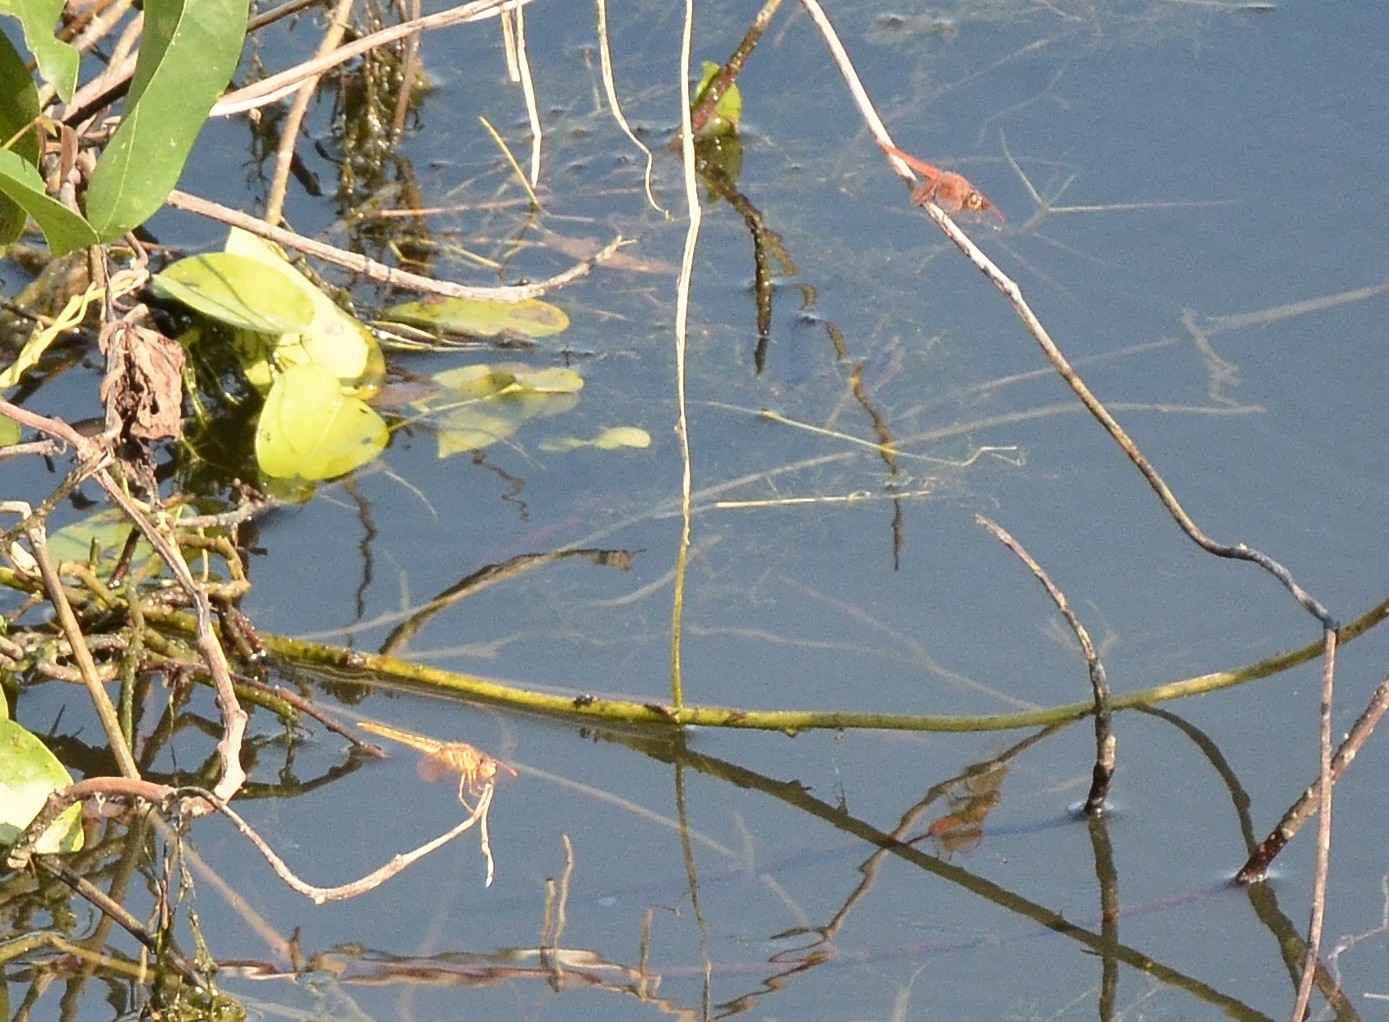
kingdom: Animalia
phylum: Arthropoda
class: Insecta
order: Odonata
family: Libellulidae
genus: Brachythemis
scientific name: Brachythemis contaminata
